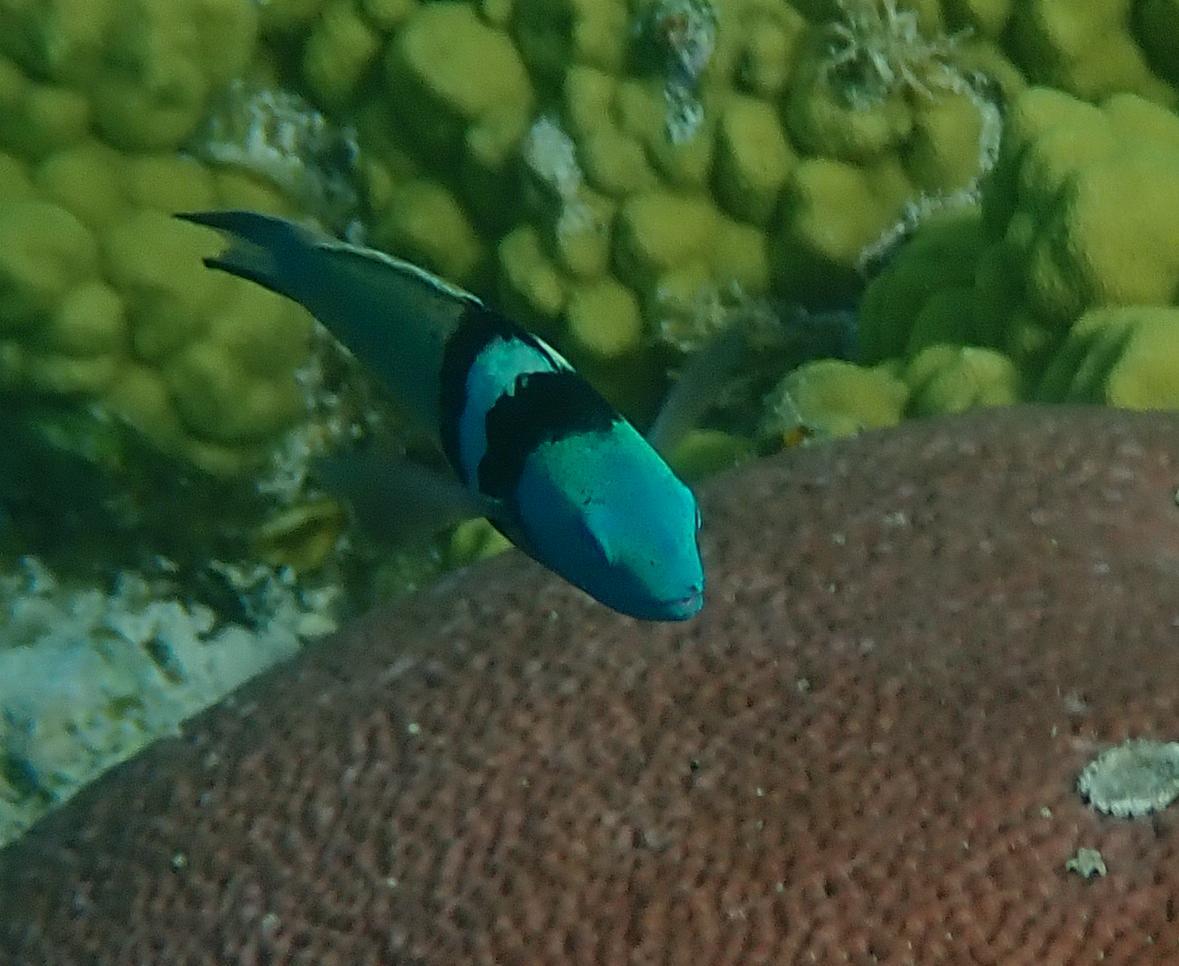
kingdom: Animalia
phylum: Chordata
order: Perciformes
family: Labridae
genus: Thalassoma
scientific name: Thalassoma bifasciatum
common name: Bluehead wrasse
